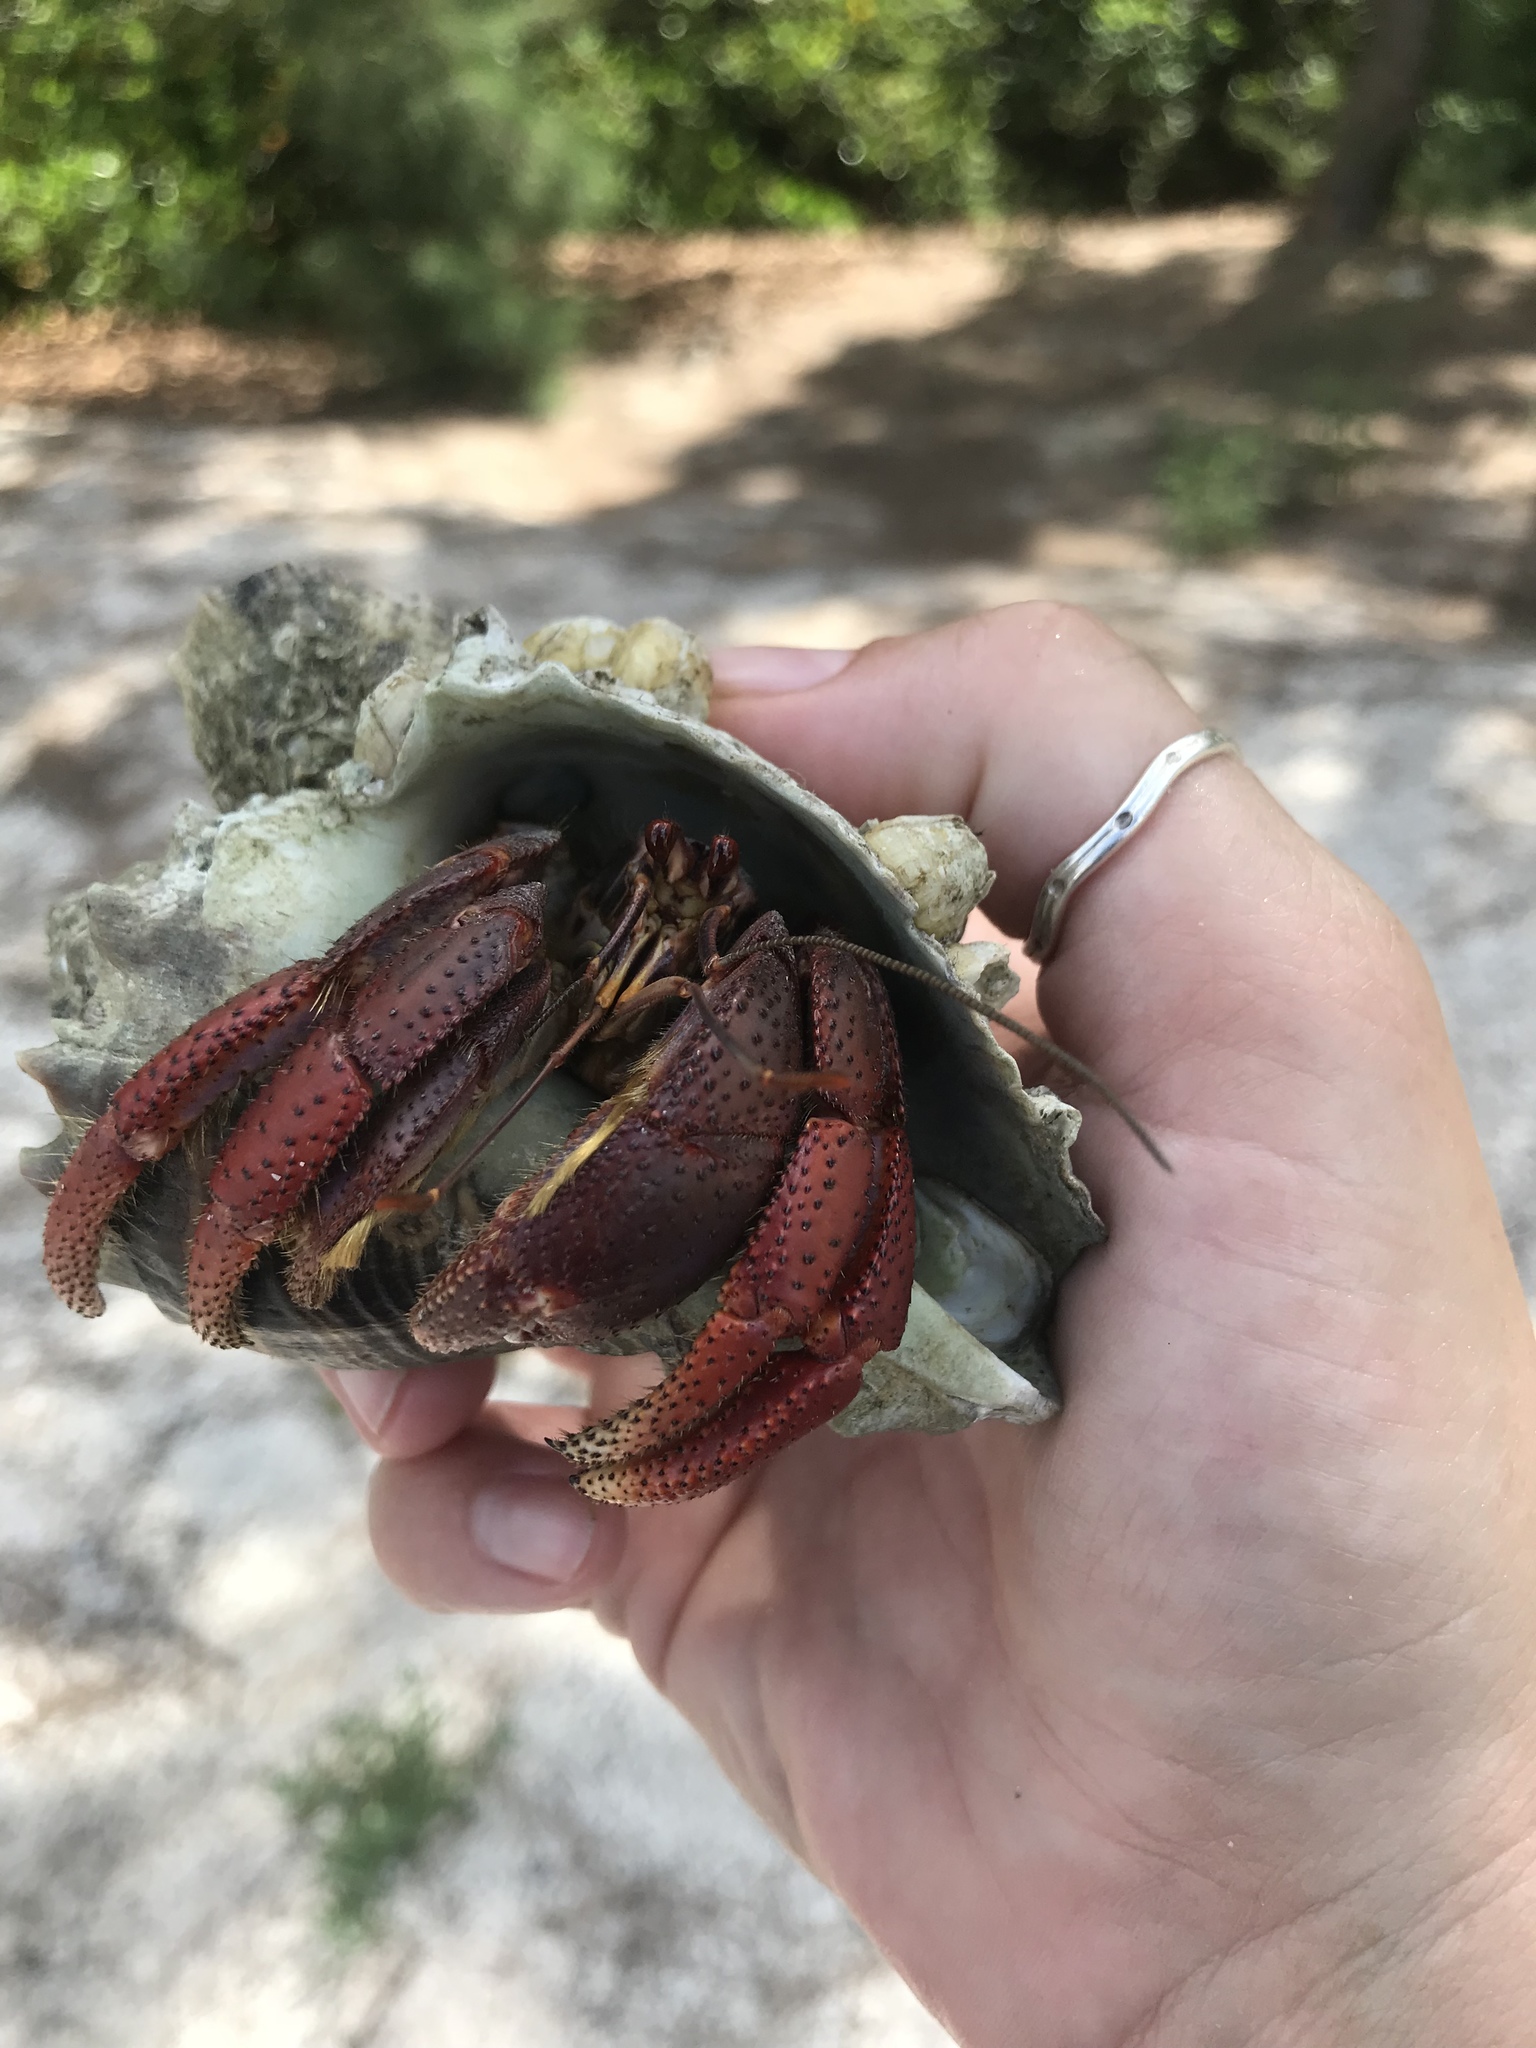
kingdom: Animalia
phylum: Arthropoda
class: Malacostraca
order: Decapoda
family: Coenobitidae
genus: Coenobita
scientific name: Coenobita clypeatus
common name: Caribbean hermit crab
